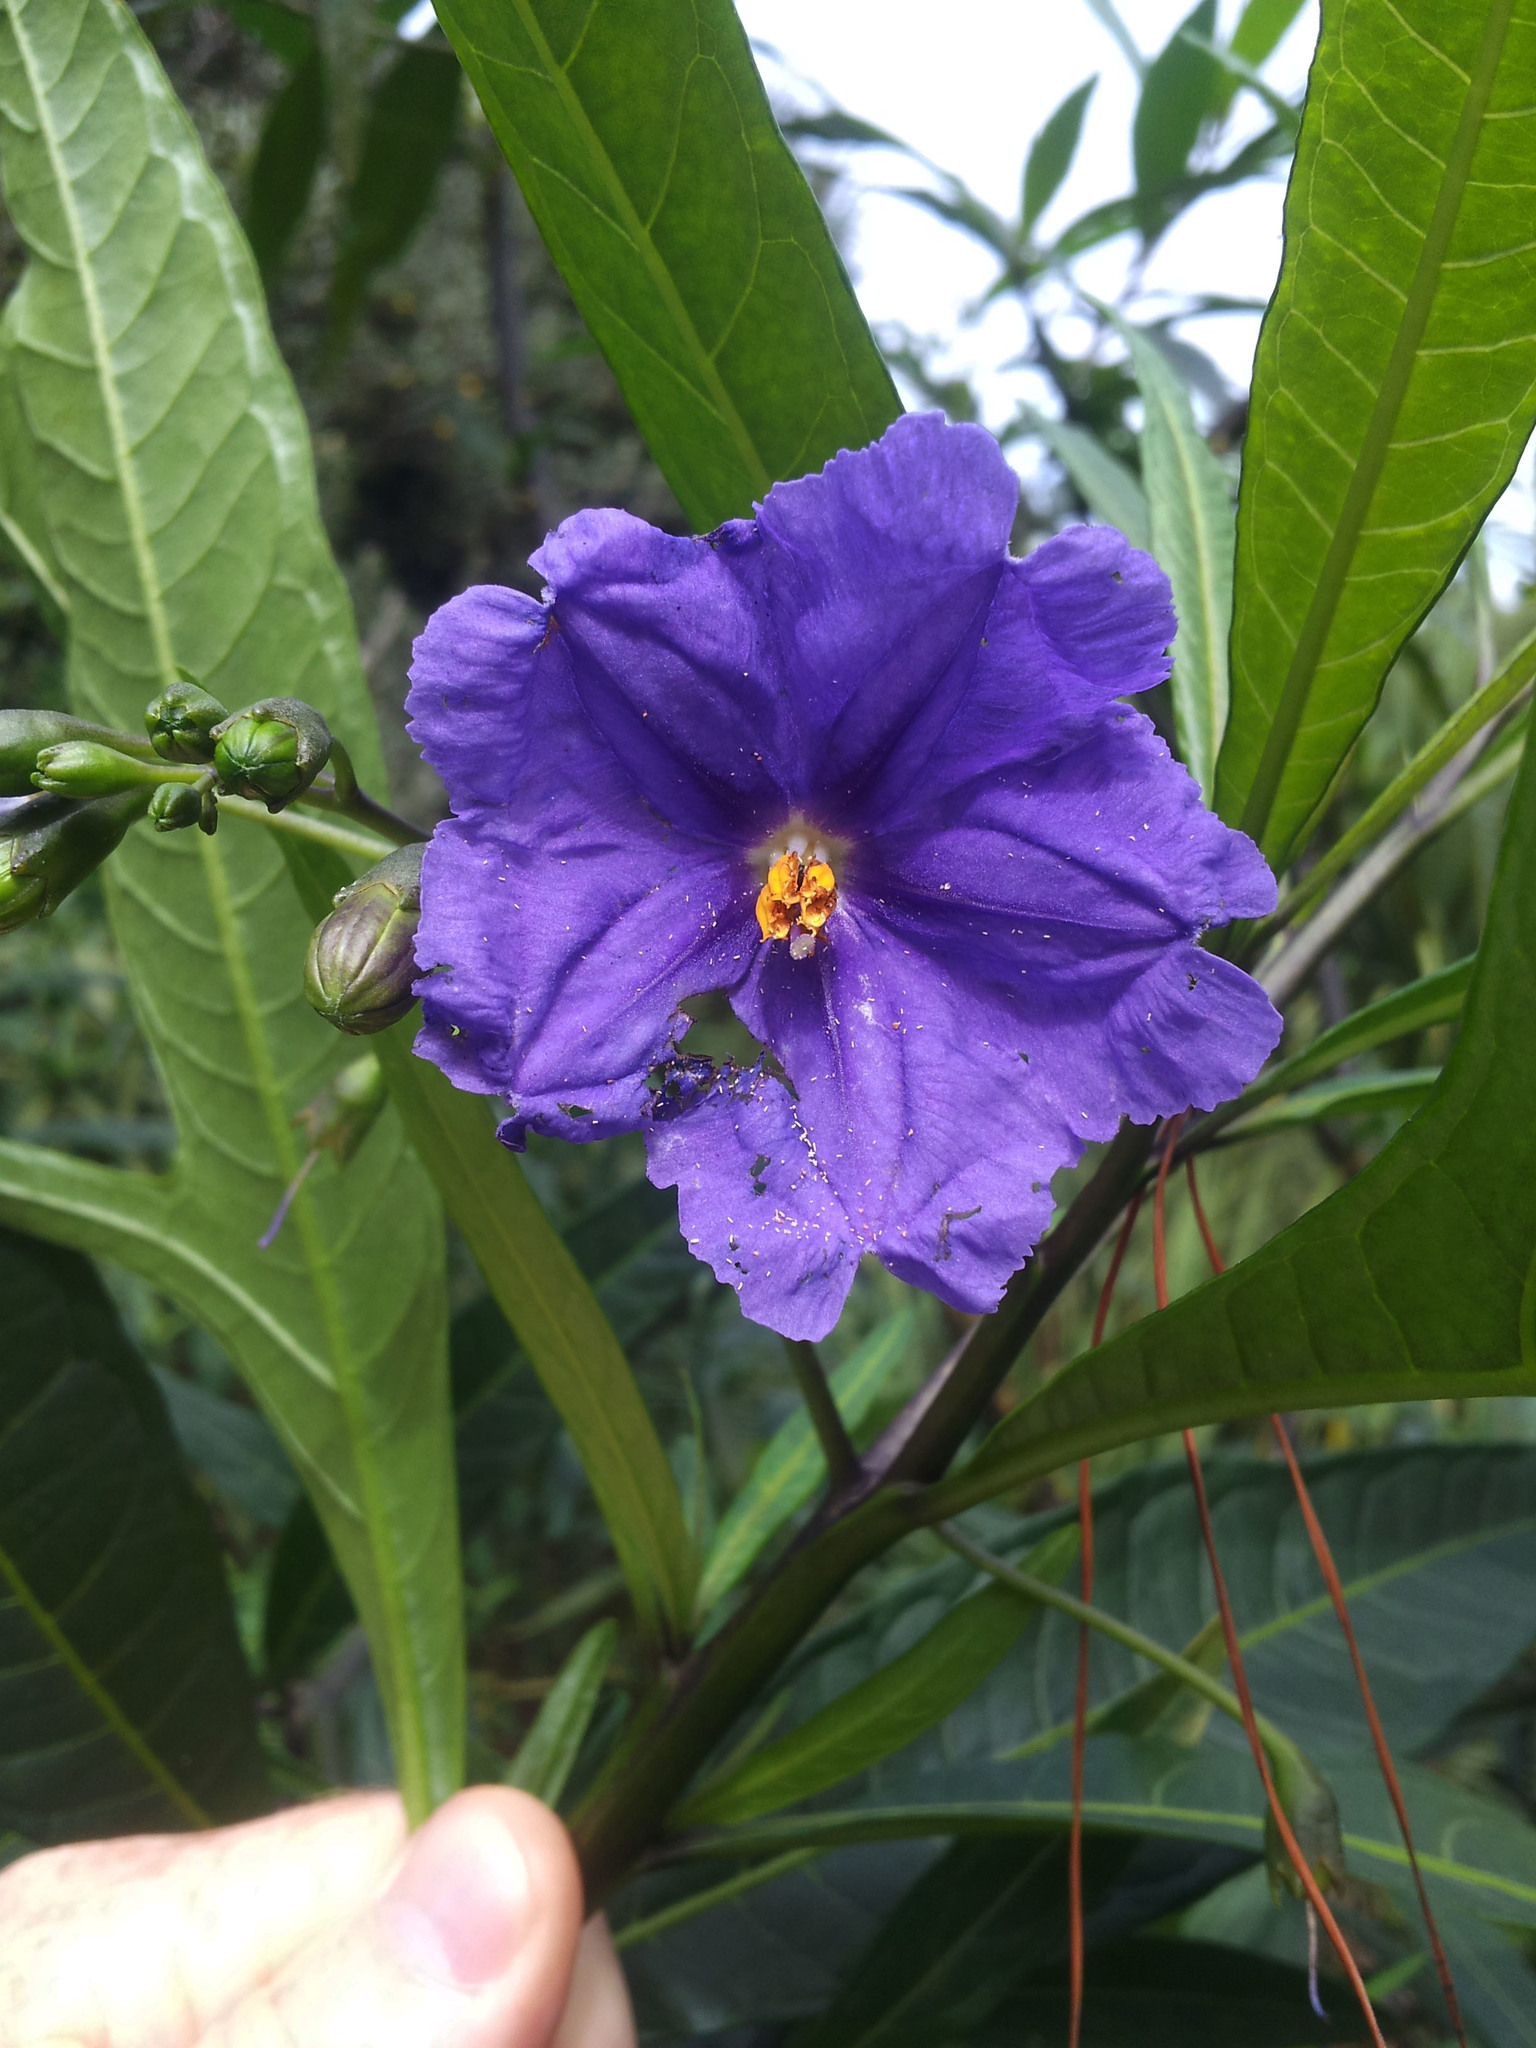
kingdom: Plantae
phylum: Tracheophyta
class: Magnoliopsida
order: Solanales
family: Solanaceae
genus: Solanum
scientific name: Solanum laciniatum
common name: Kangaroo-apple
